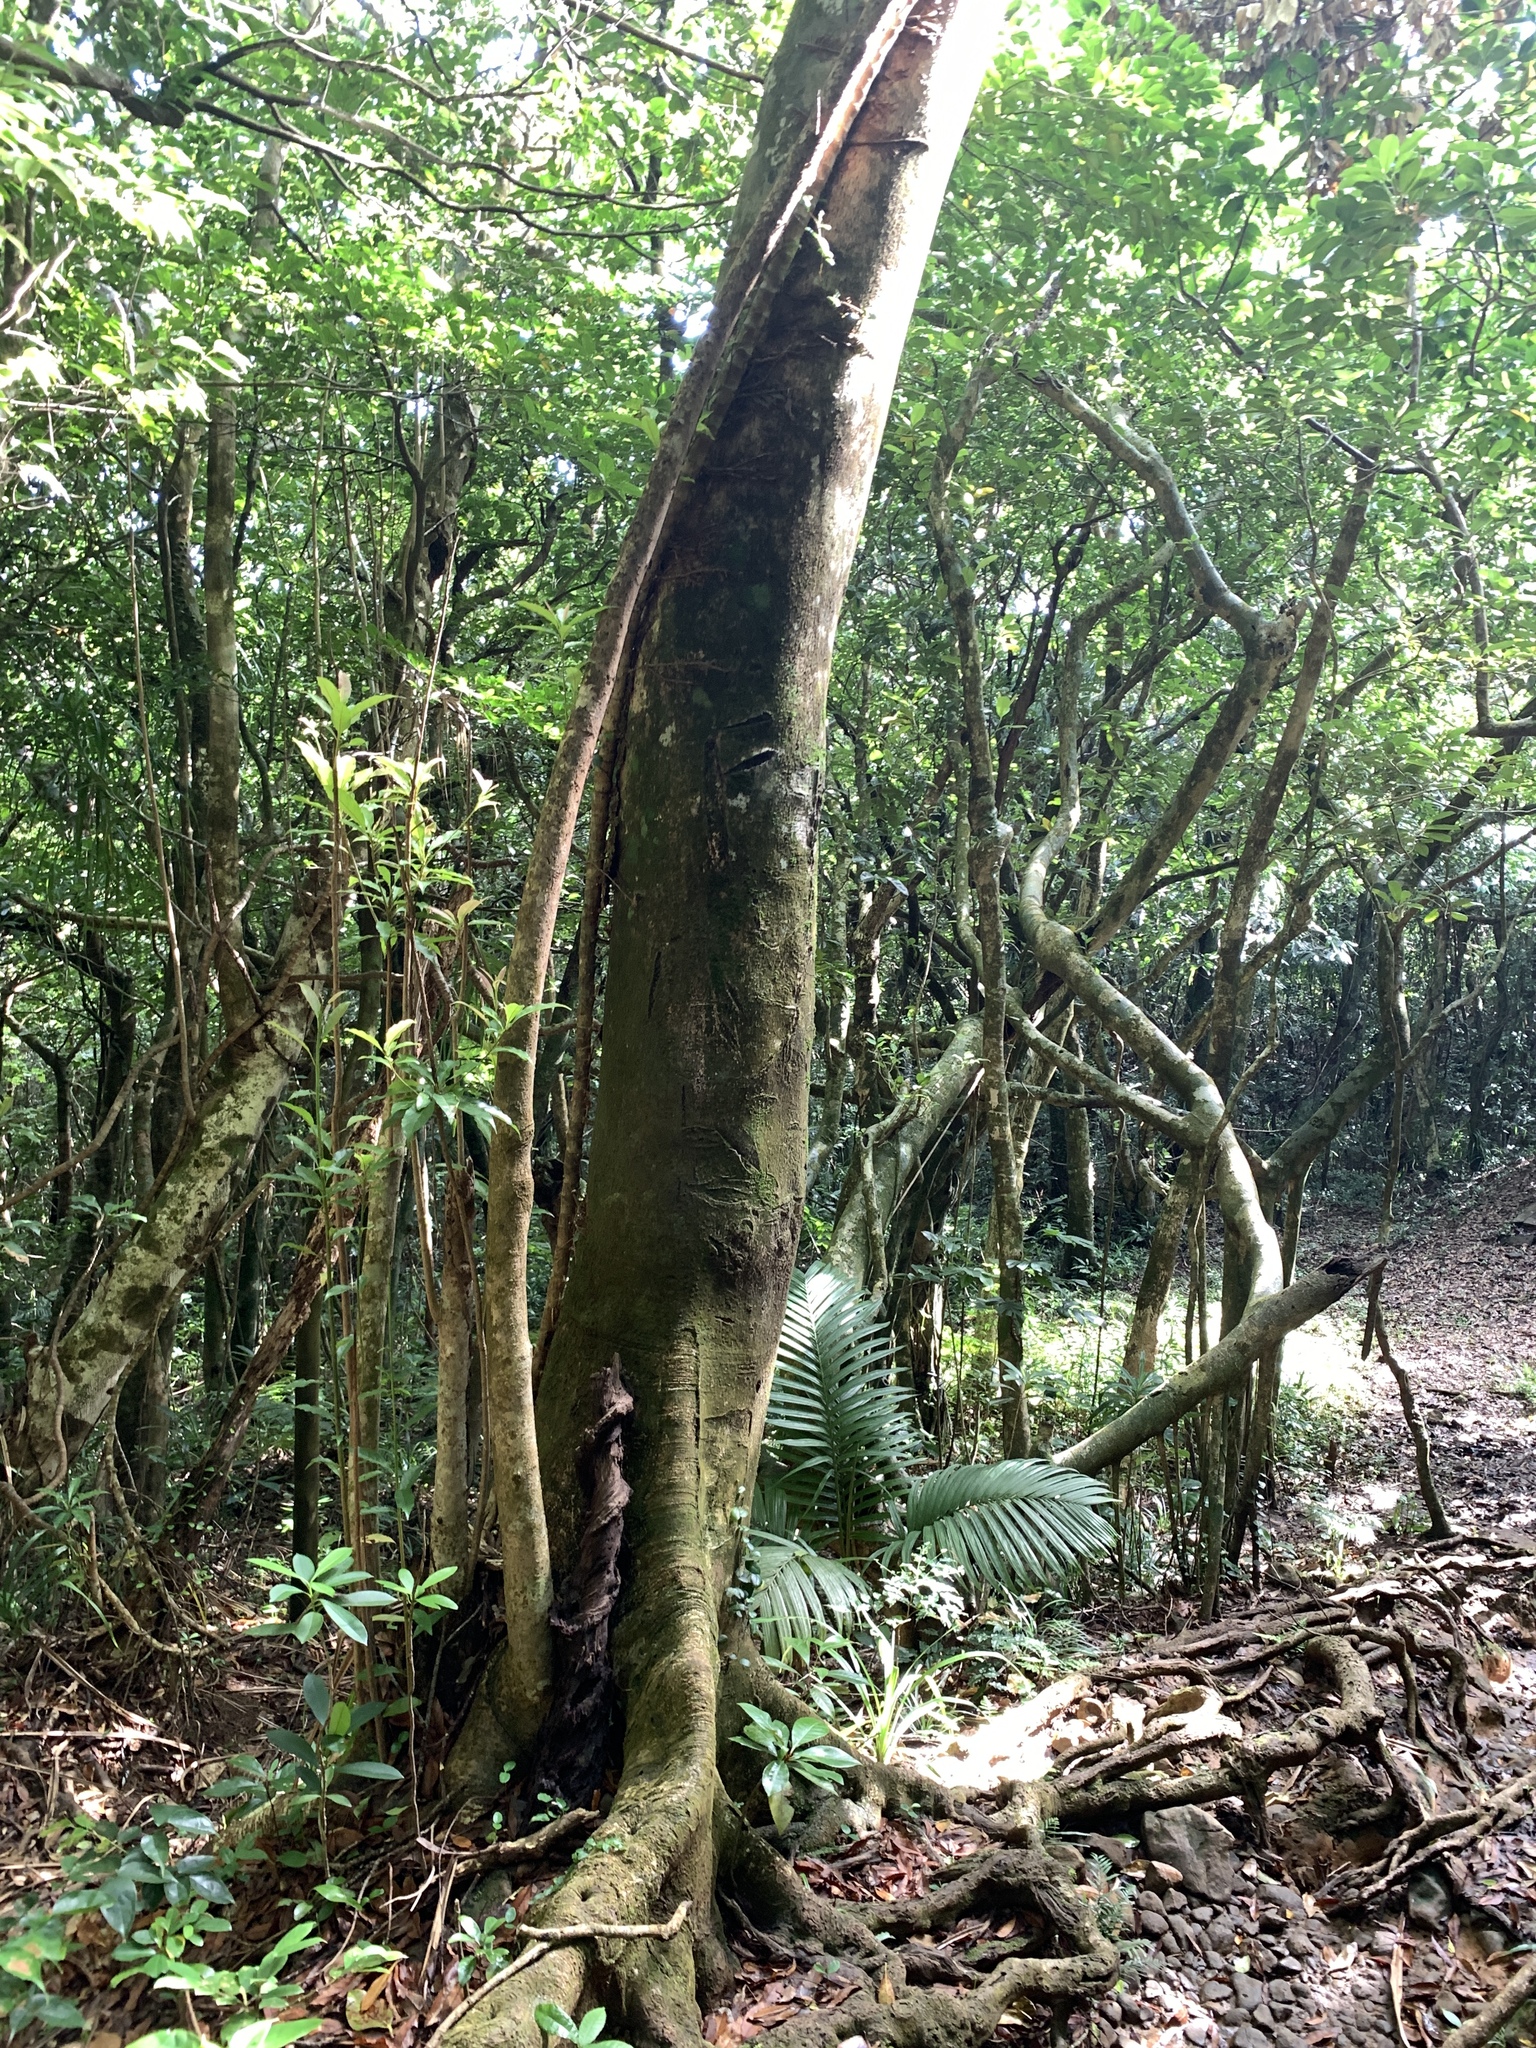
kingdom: Plantae
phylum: Tracheophyta
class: Magnoliopsida
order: Oxalidales
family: Elaeocarpaceae
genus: Elaeocarpus
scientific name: Elaeocarpus argenteus
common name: Flowering plant
